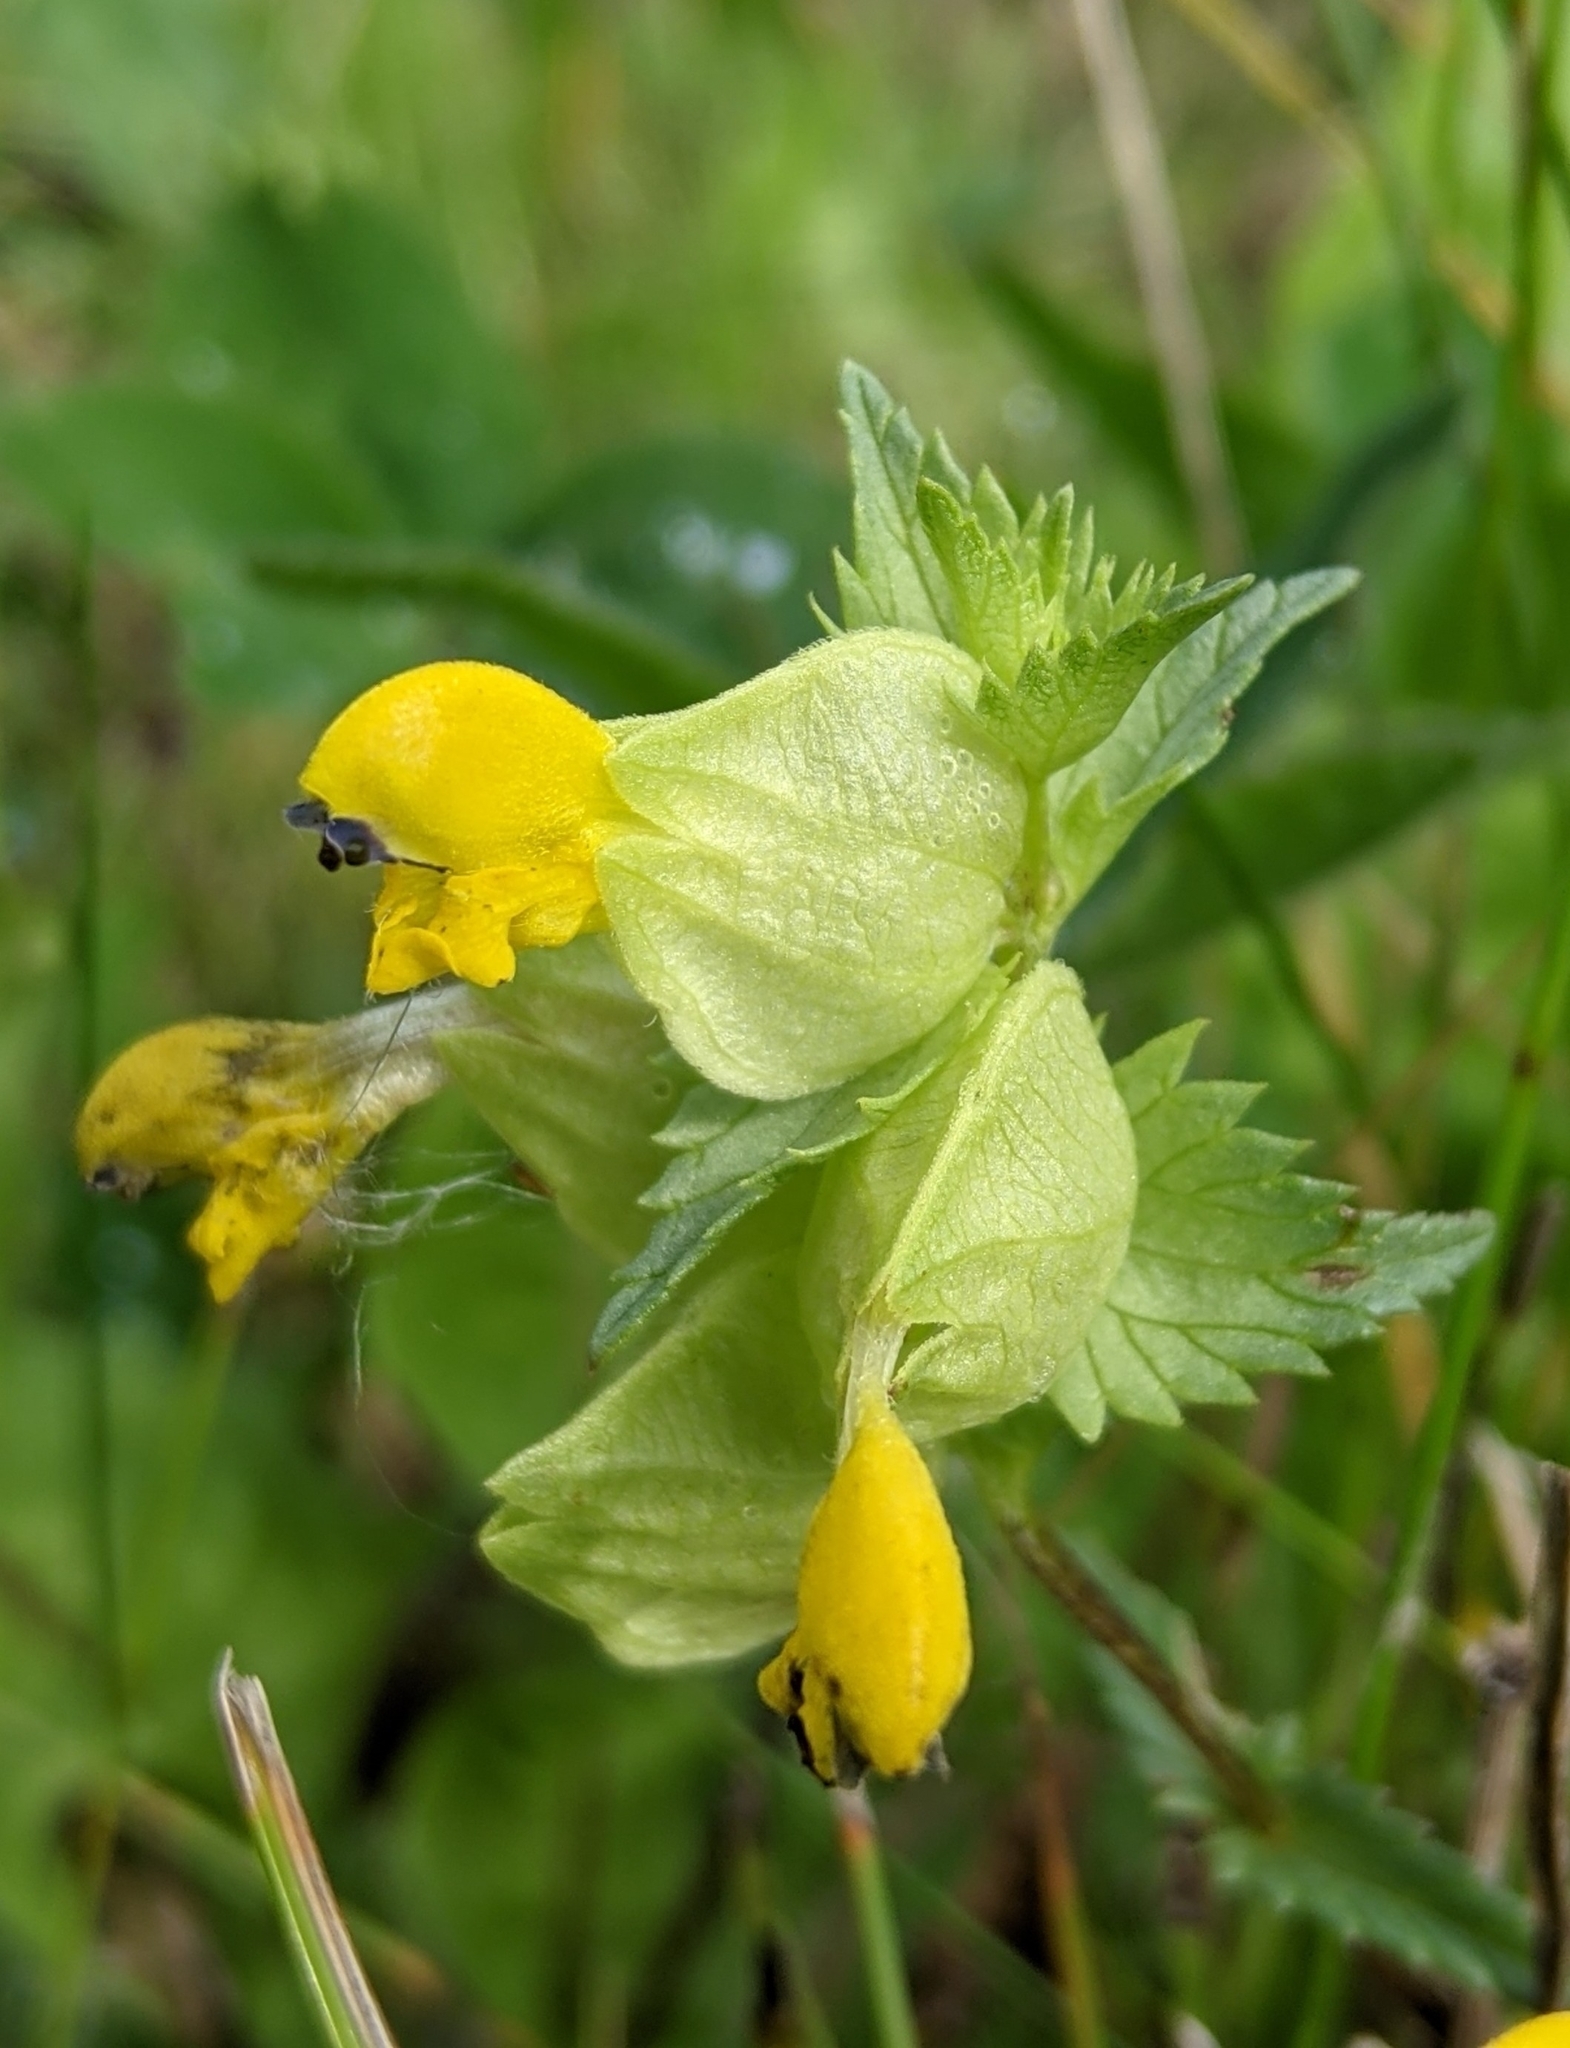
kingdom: Plantae
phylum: Tracheophyta
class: Magnoliopsida
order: Lamiales
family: Orobanchaceae
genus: Rhinanthus
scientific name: Rhinanthus minor
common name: Yellow-rattle
